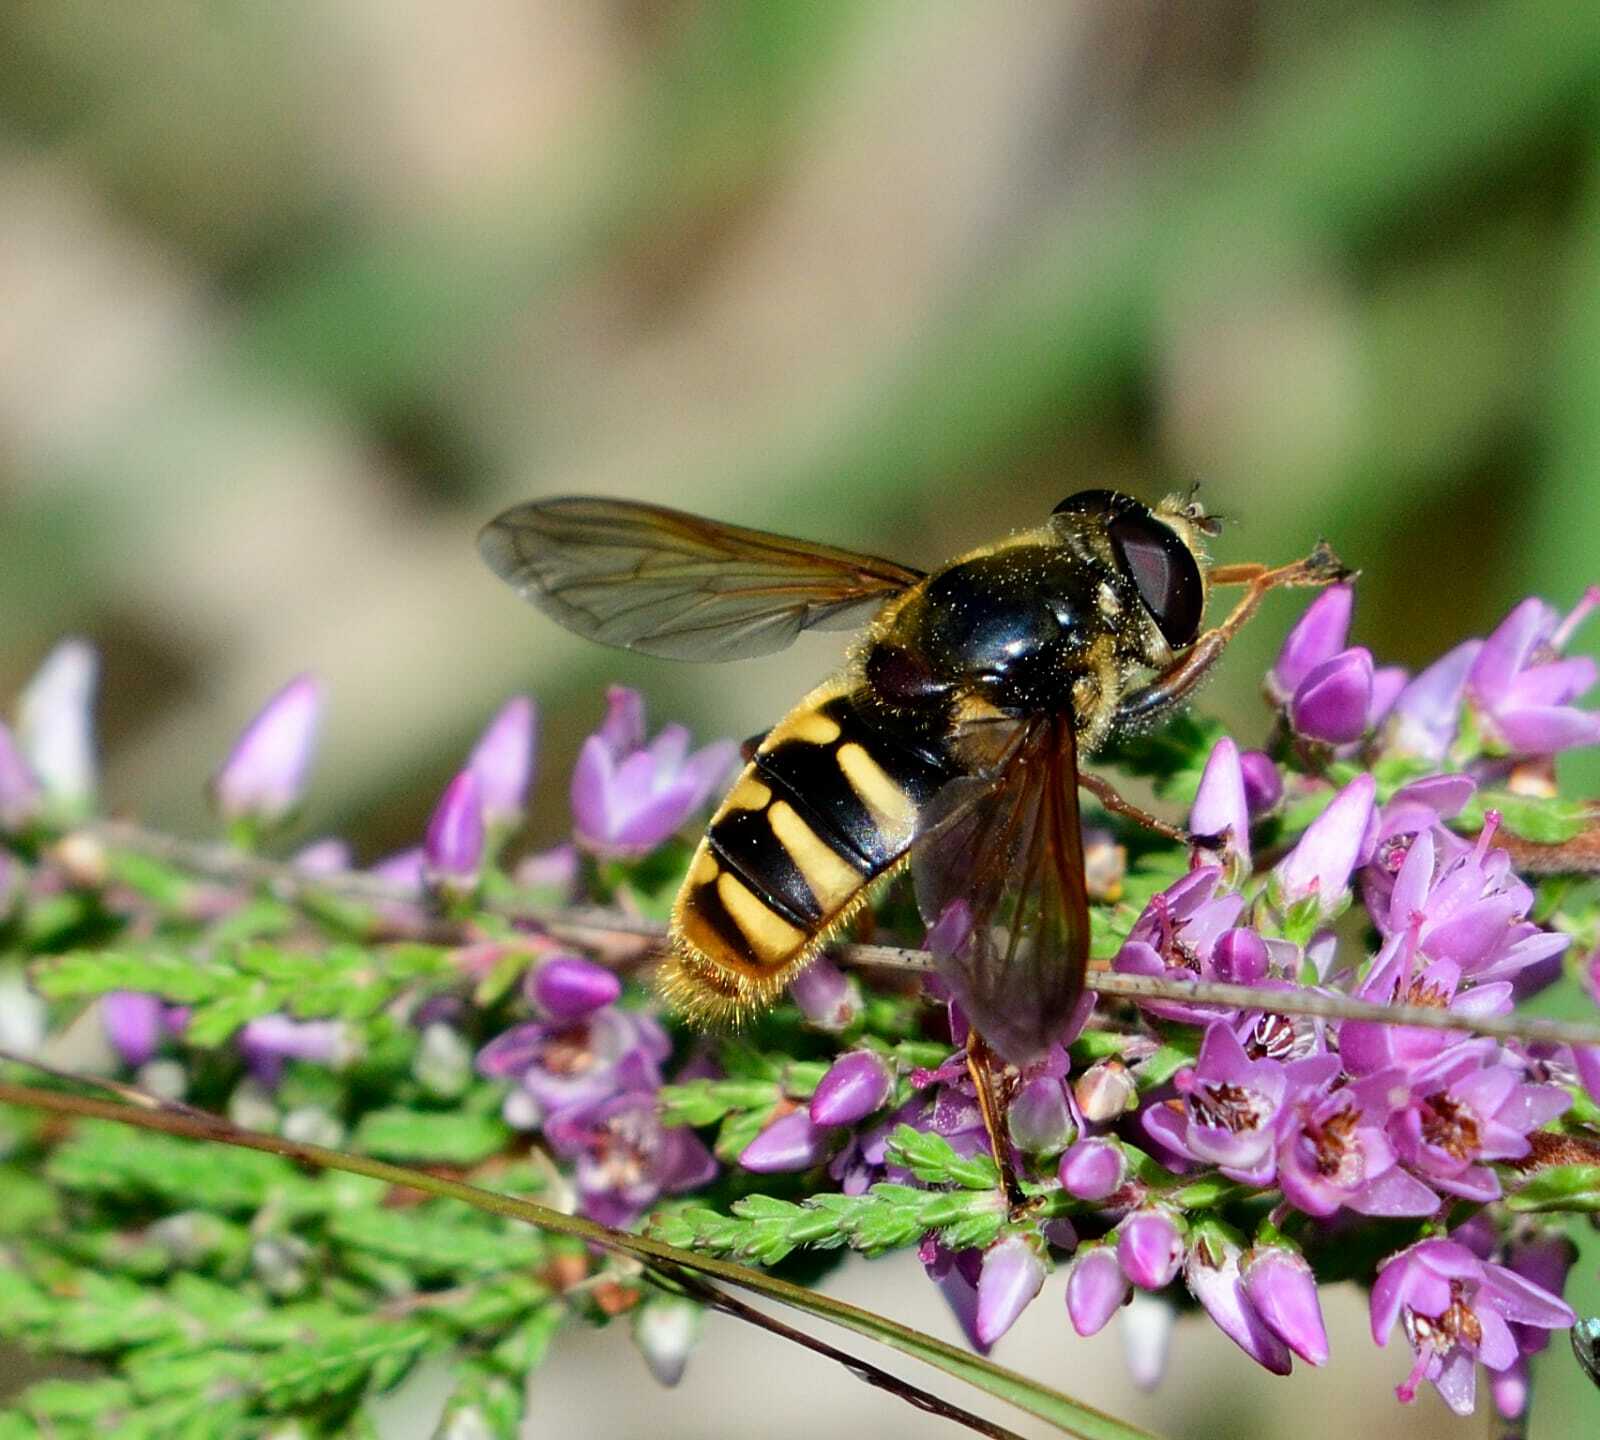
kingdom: Animalia
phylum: Arthropoda
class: Insecta
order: Diptera
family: Syrphidae
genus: Sericomyia
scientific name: Sericomyia silentis
